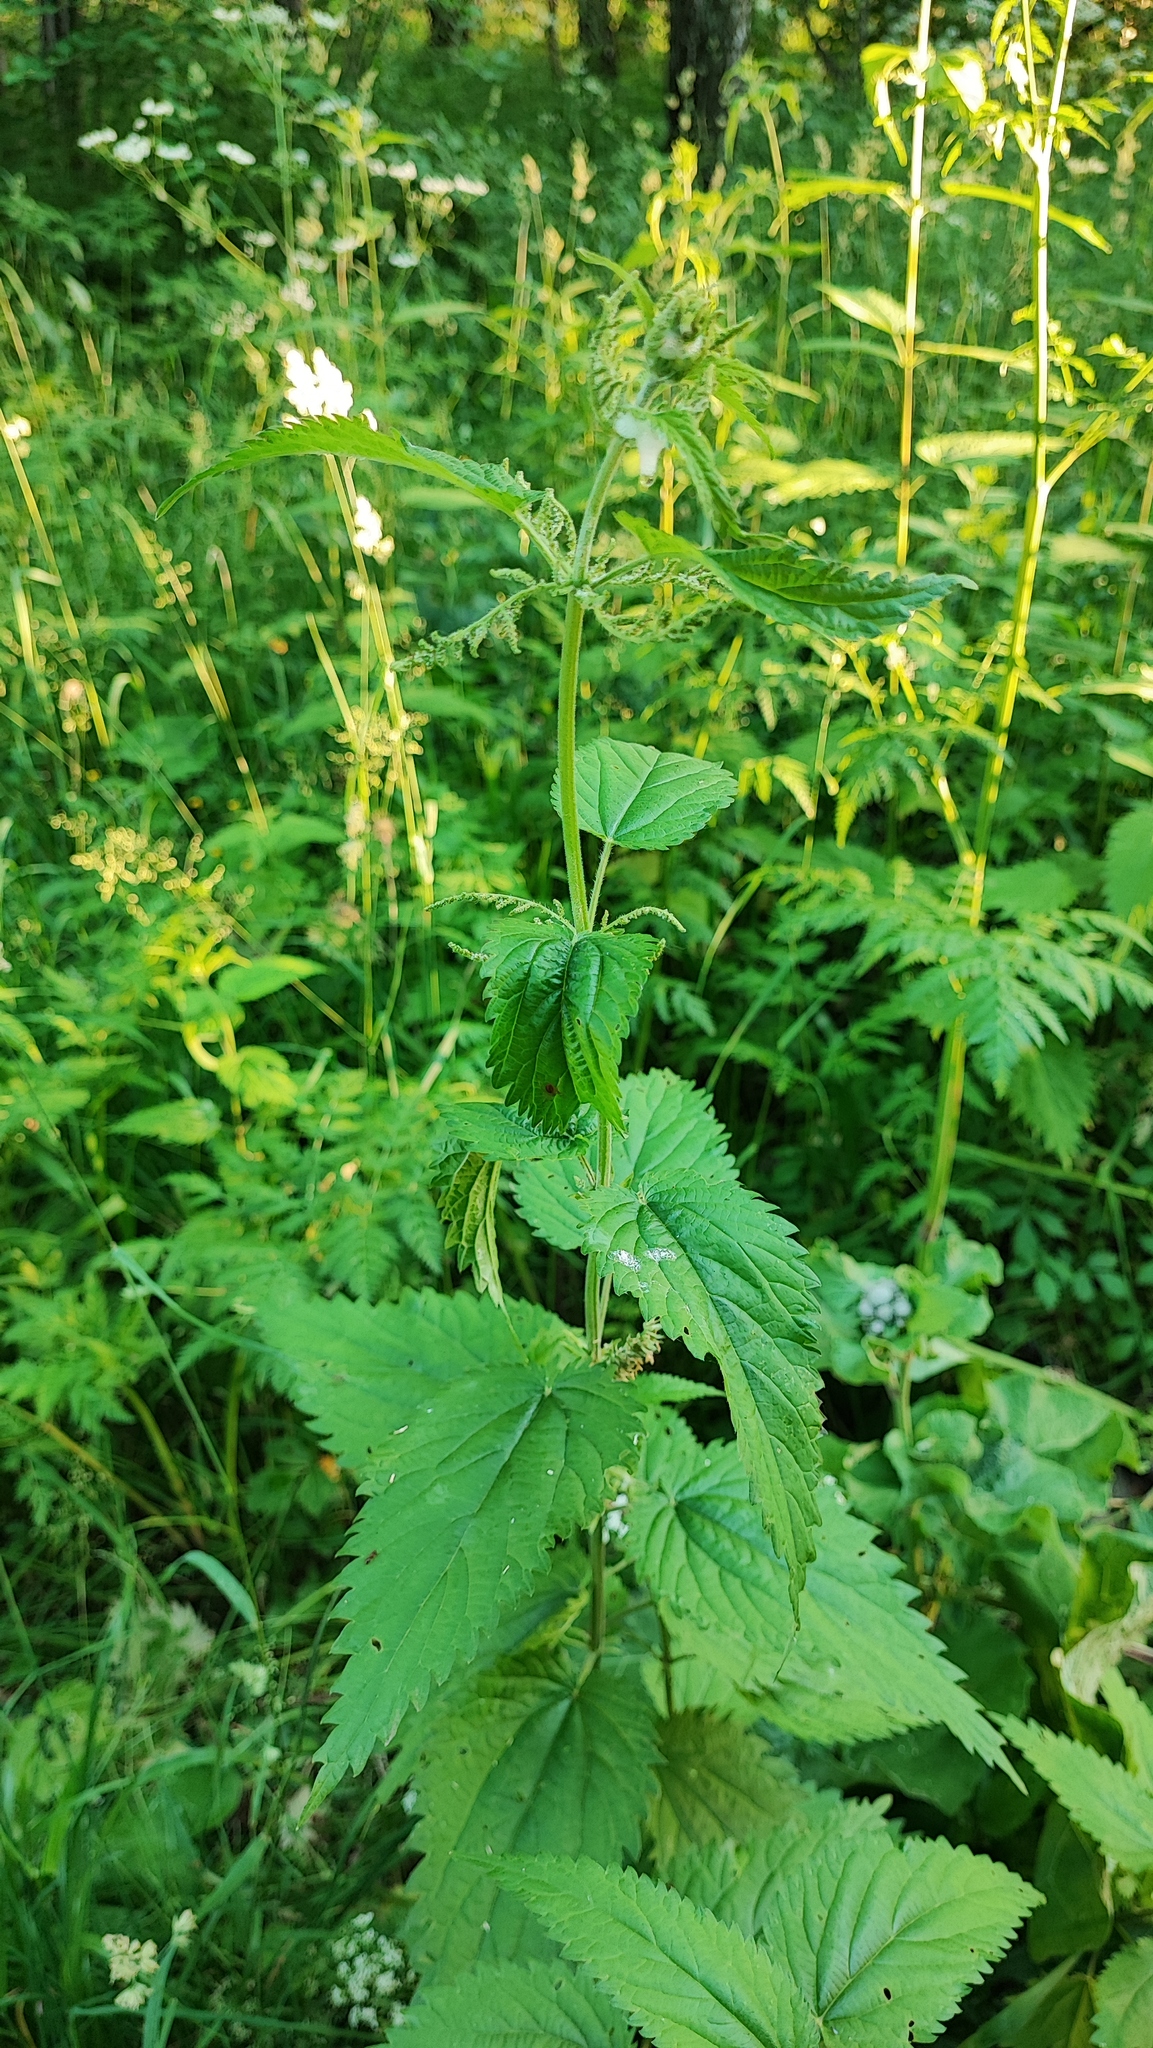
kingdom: Plantae
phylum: Tracheophyta
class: Magnoliopsida
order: Rosales
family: Urticaceae
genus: Urtica
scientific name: Urtica dioica
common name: Common nettle
